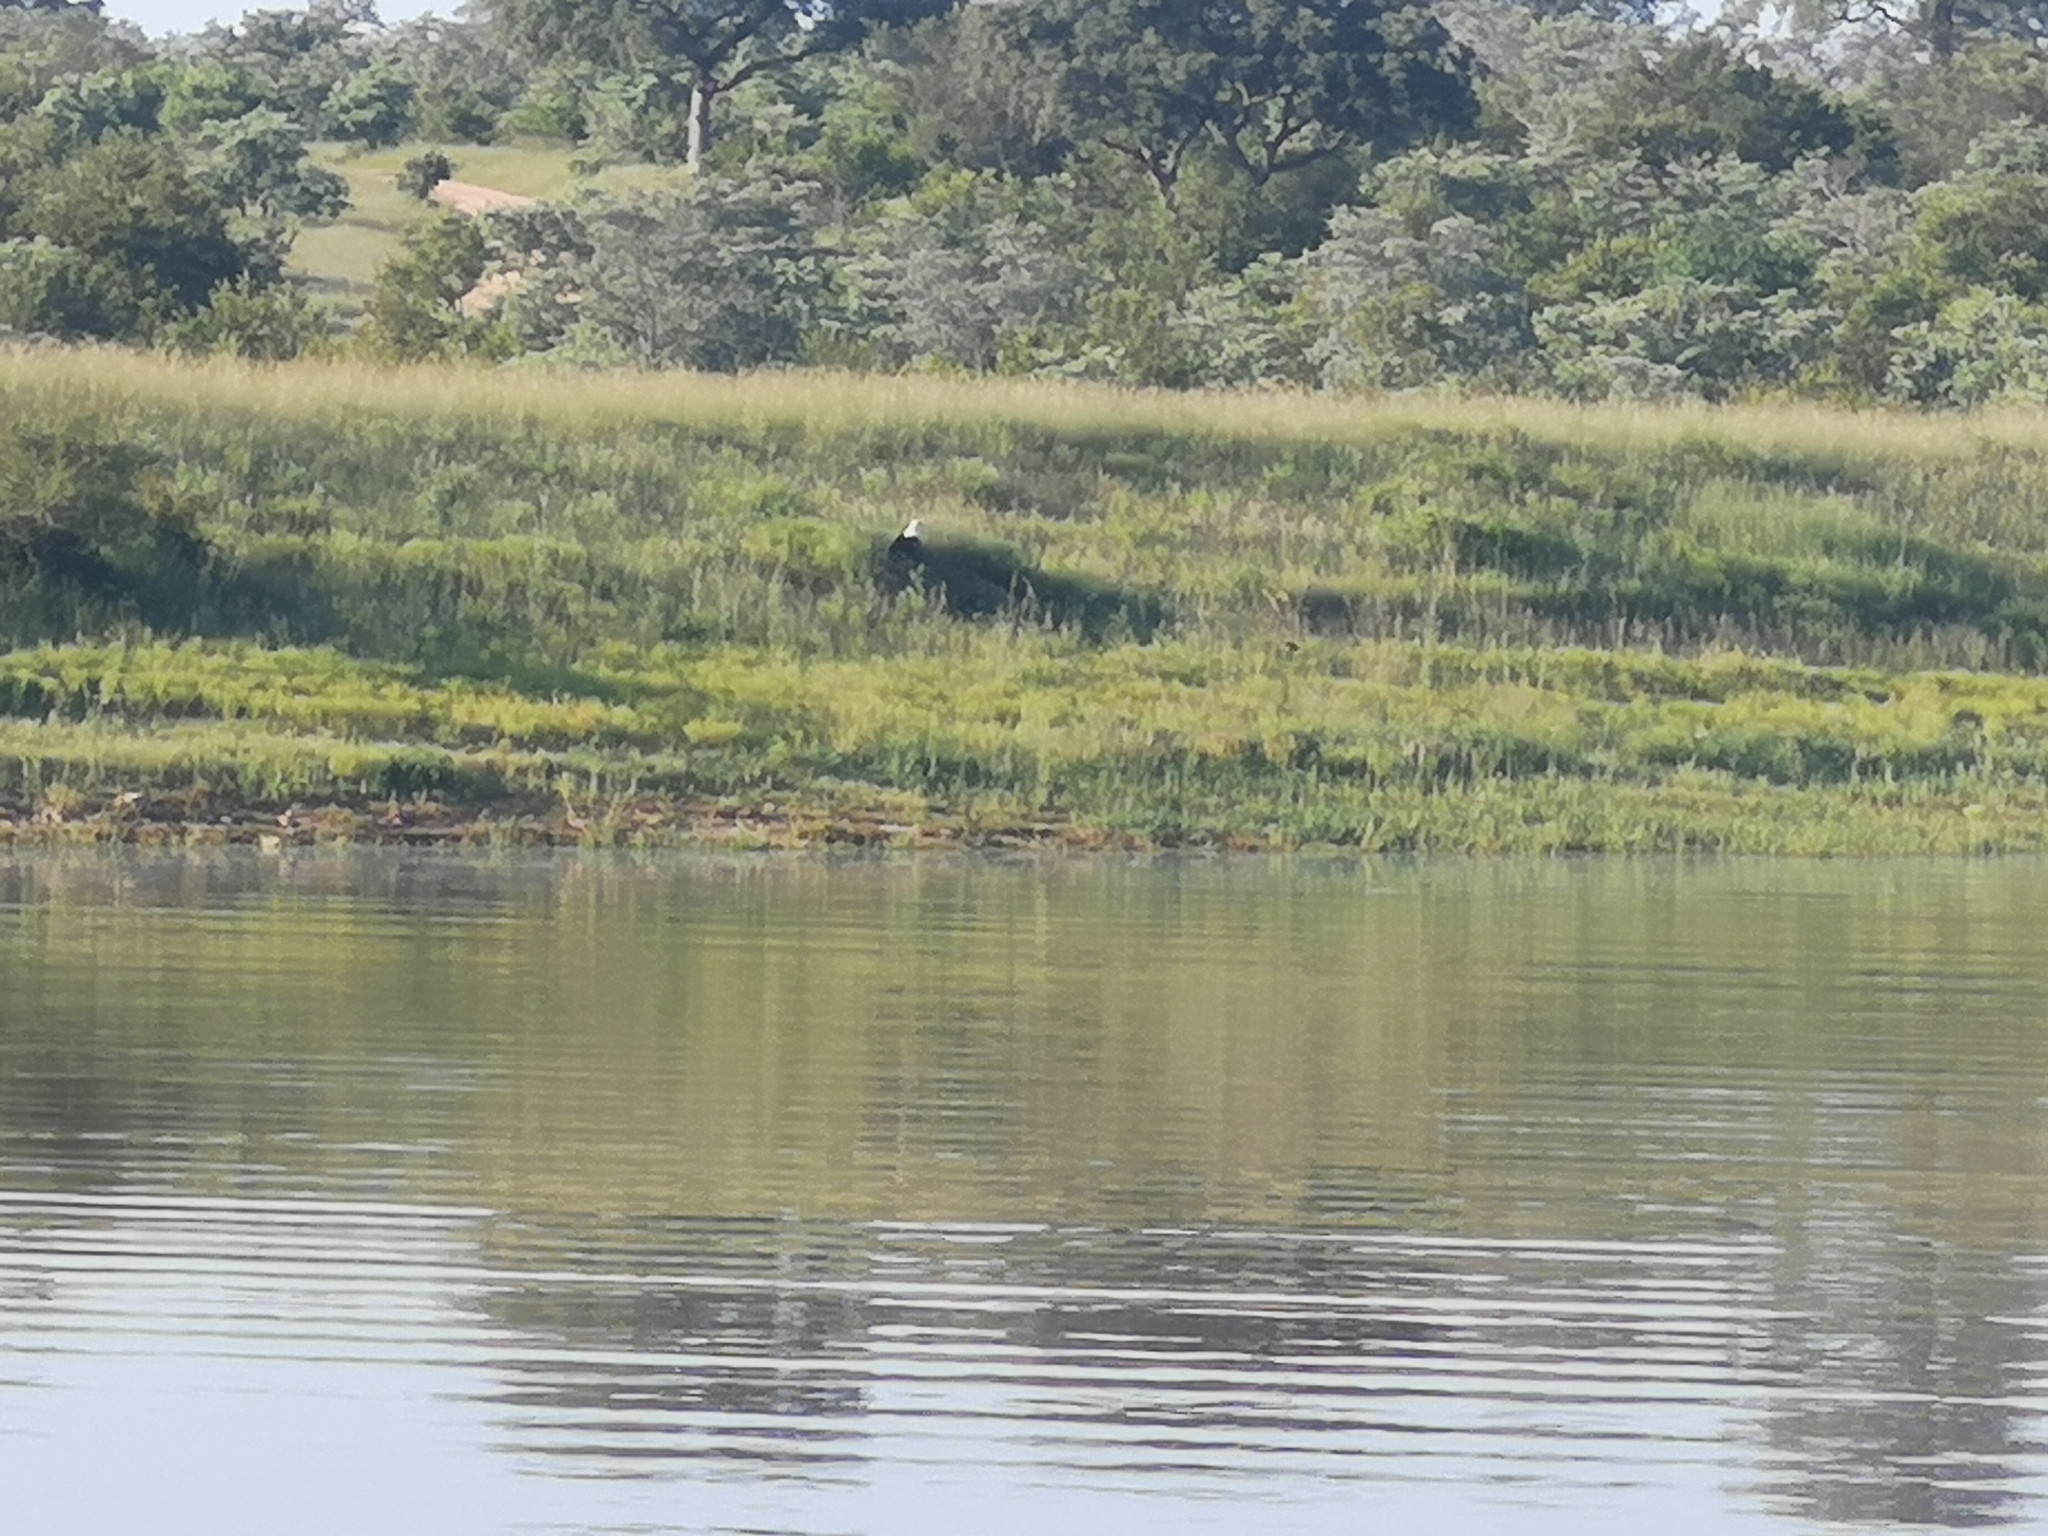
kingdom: Animalia
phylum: Chordata
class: Aves
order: Accipitriformes
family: Accipitridae
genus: Haliaeetus
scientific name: Haliaeetus vocifer
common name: African fish eagle
